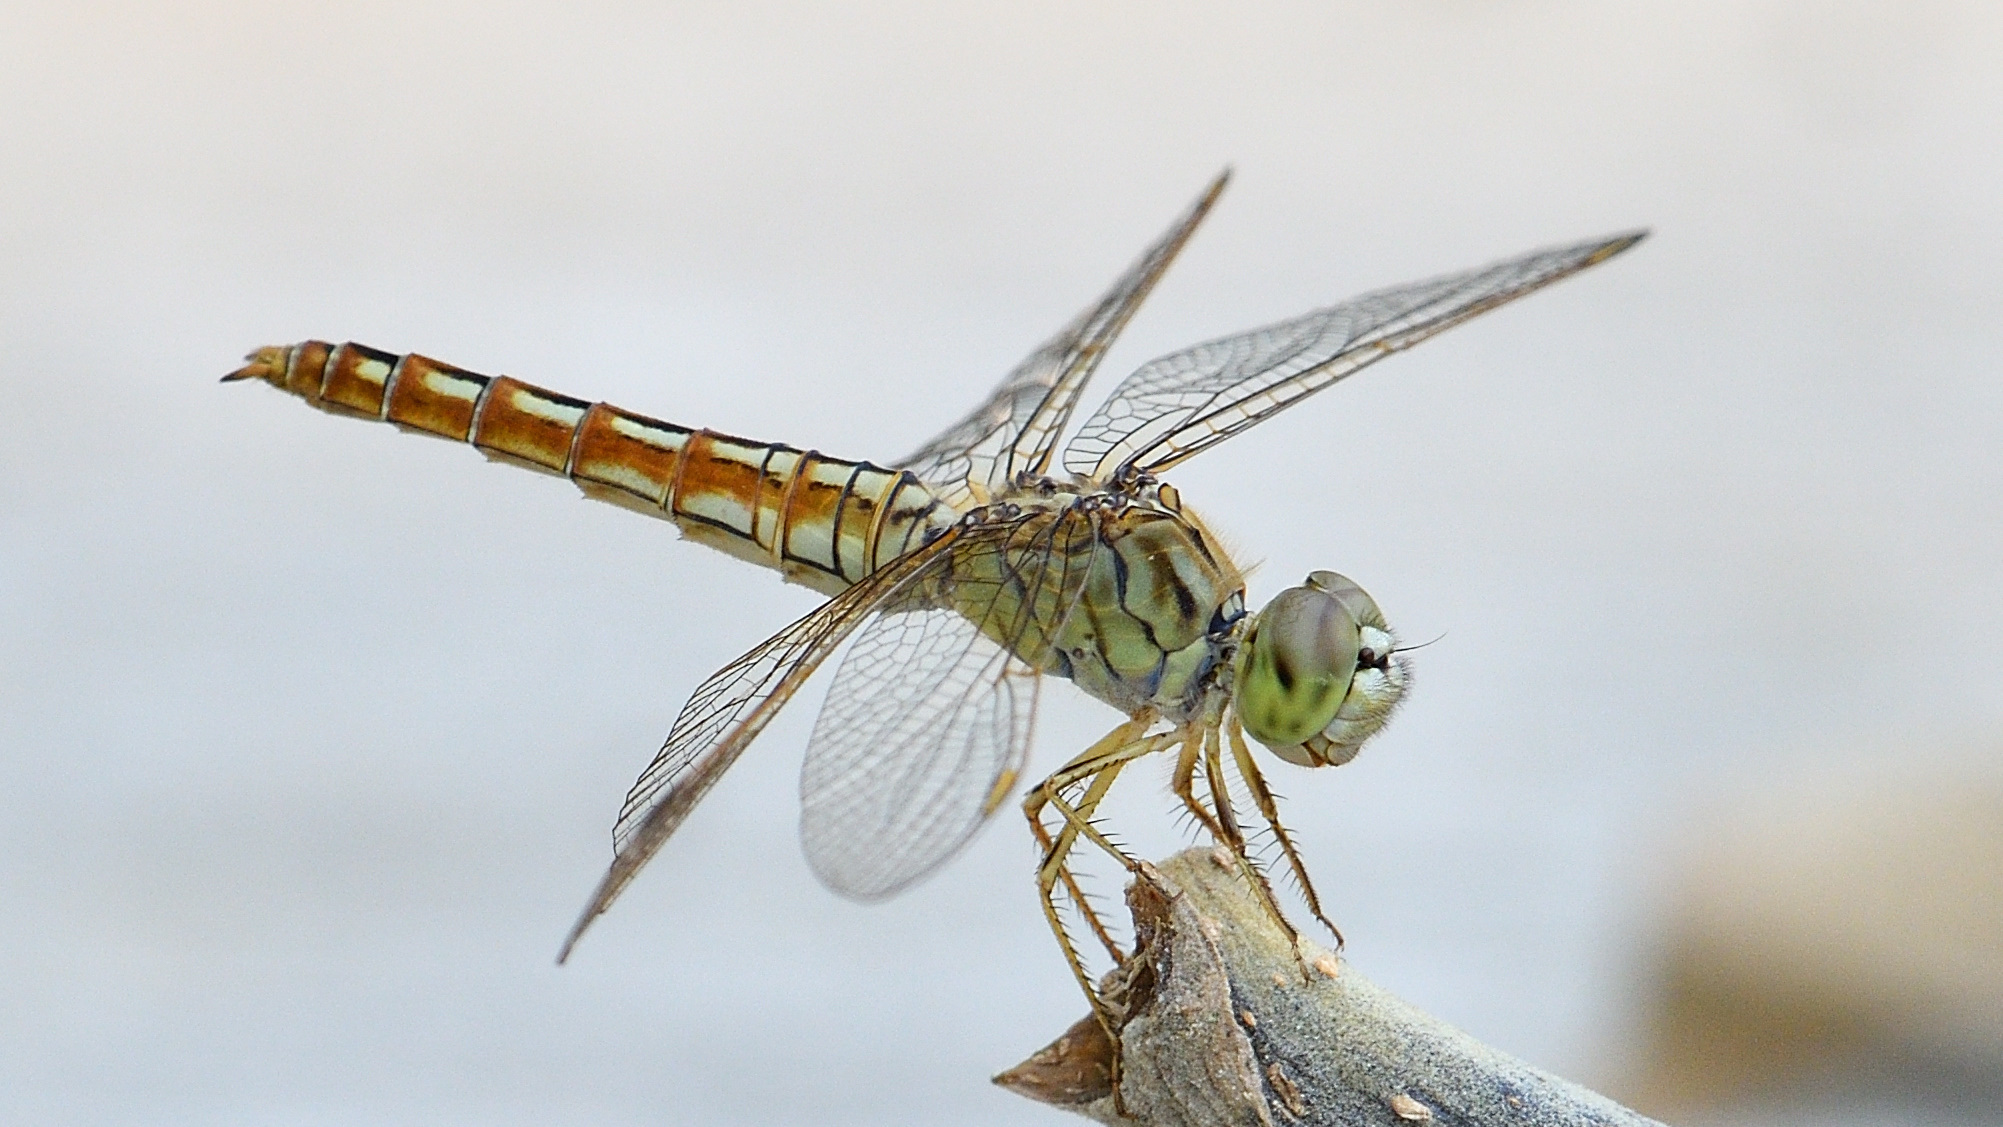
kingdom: Animalia
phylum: Arthropoda
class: Insecta
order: Odonata
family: Libellulidae
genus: Brachythemis
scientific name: Brachythemis contaminata
